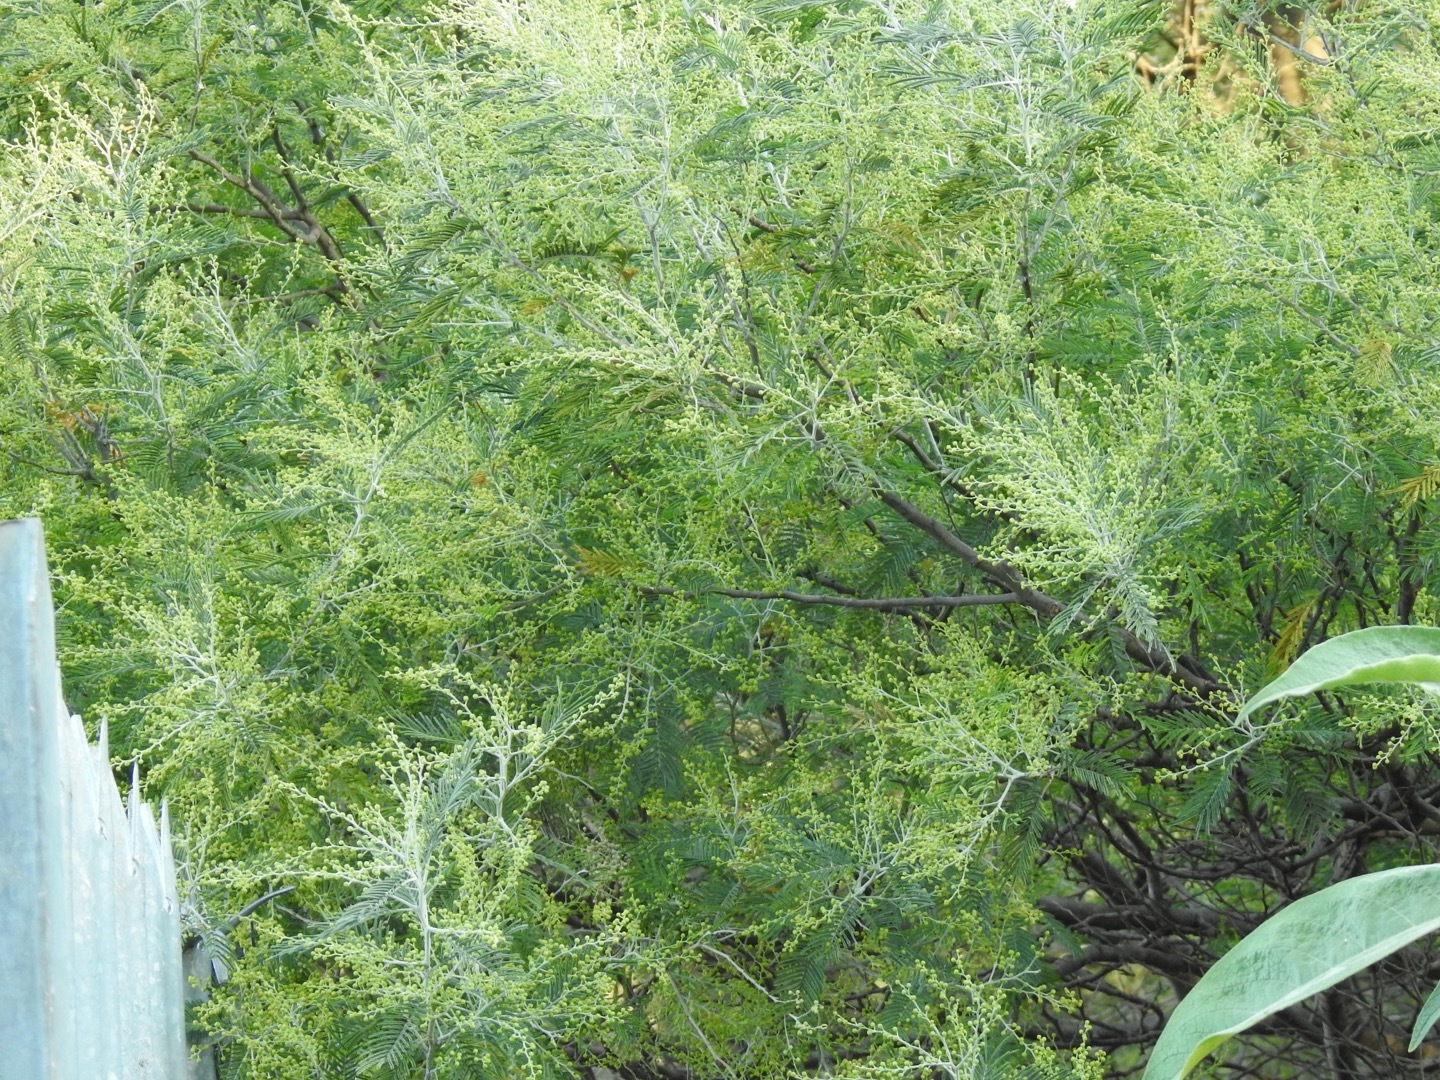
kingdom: Plantae
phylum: Tracheophyta
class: Magnoliopsida
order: Fabales
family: Fabaceae
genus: Acacia
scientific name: Acacia dealbata
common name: Silver wattle
